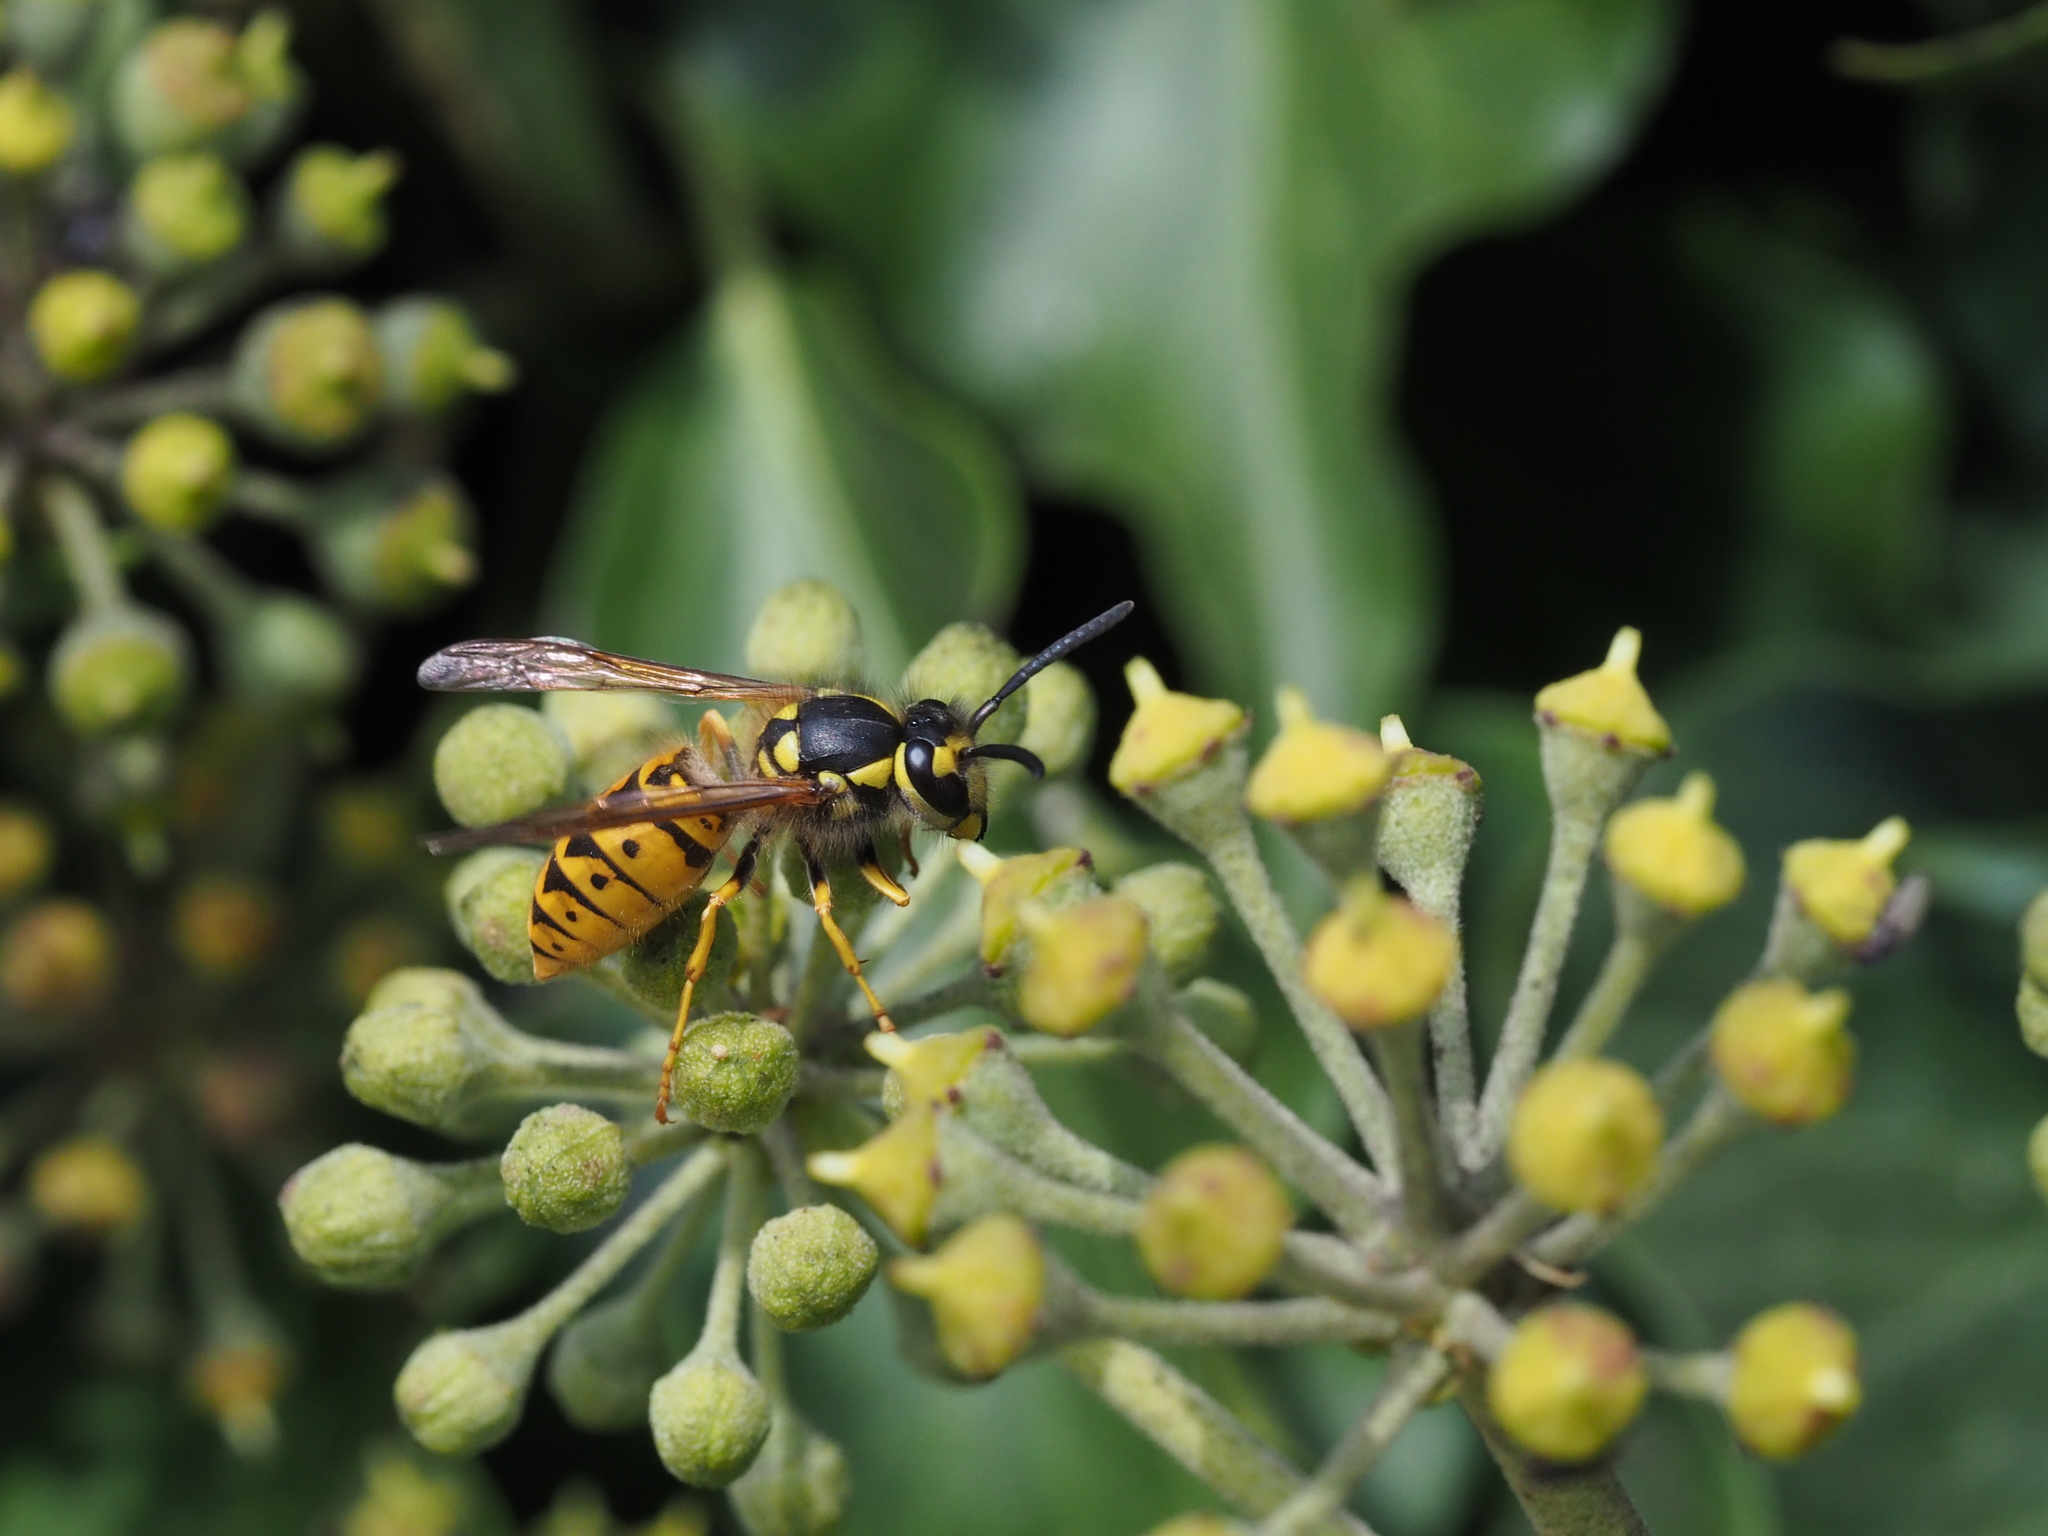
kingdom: Animalia
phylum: Arthropoda
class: Insecta
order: Hymenoptera
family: Vespidae
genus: Vespula
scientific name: Vespula germanica
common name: German wasp
